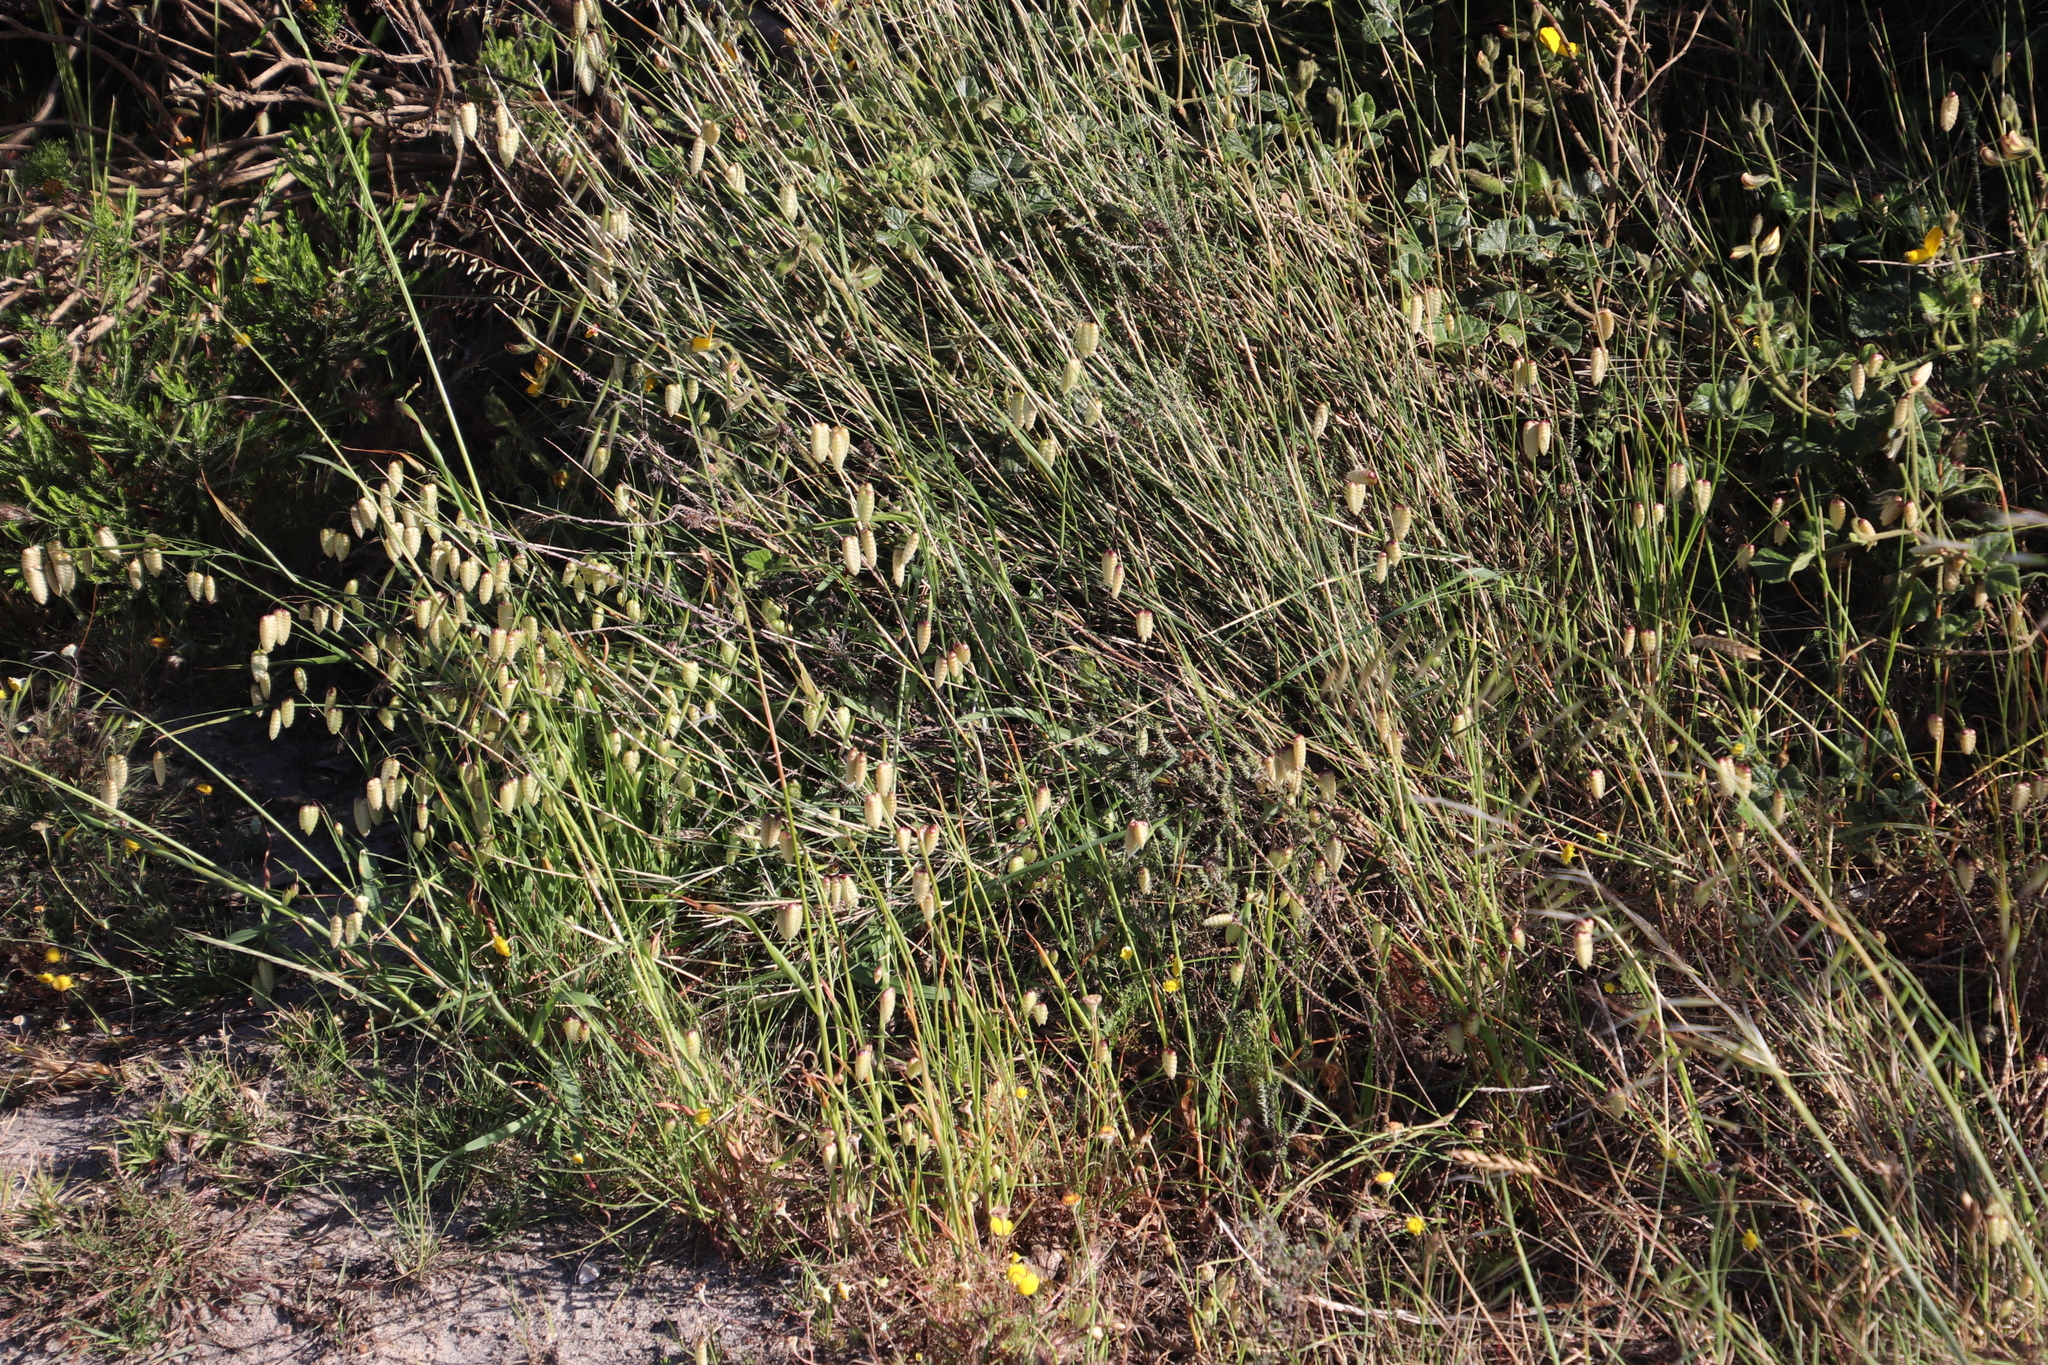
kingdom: Plantae
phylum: Tracheophyta
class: Liliopsida
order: Poales
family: Poaceae
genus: Briza
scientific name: Briza maxima
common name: Big quakinggrass
